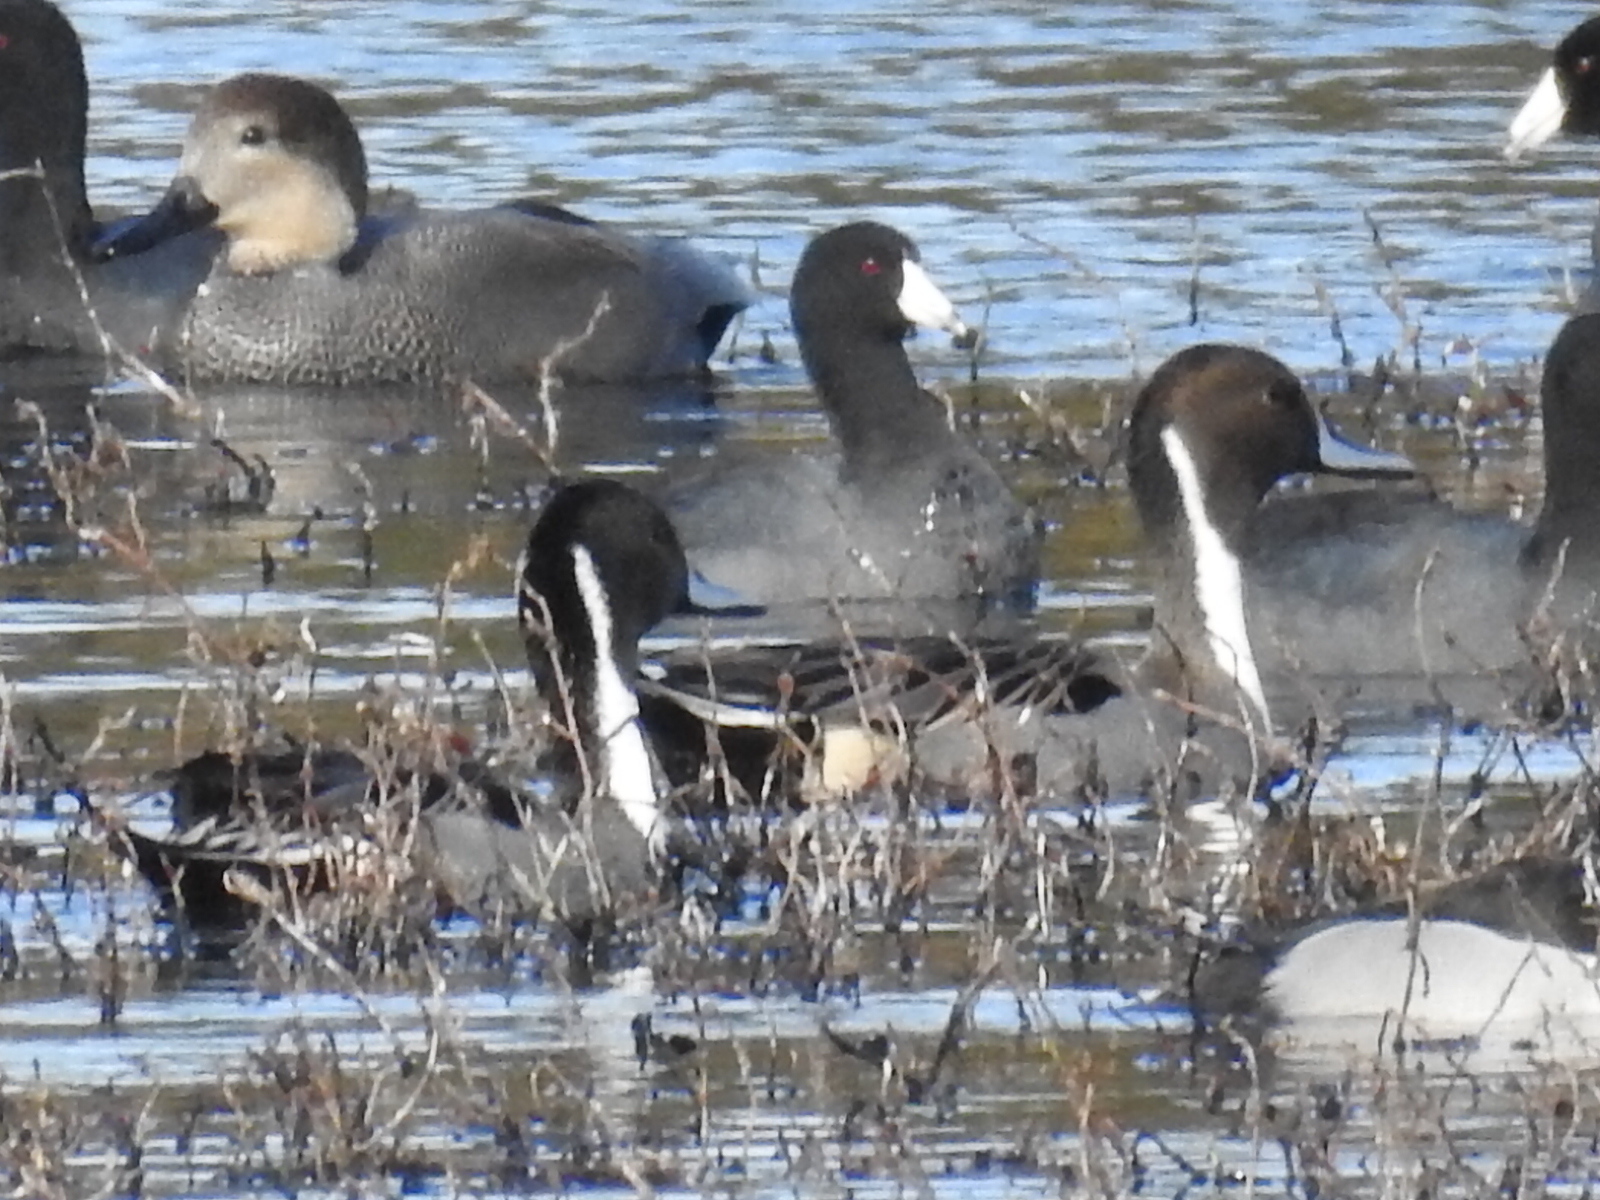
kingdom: Animalia
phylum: Chordata
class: Aves
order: Anseriformes
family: Anatidae
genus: Anas
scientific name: Anas acuta
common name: Northern pintail
